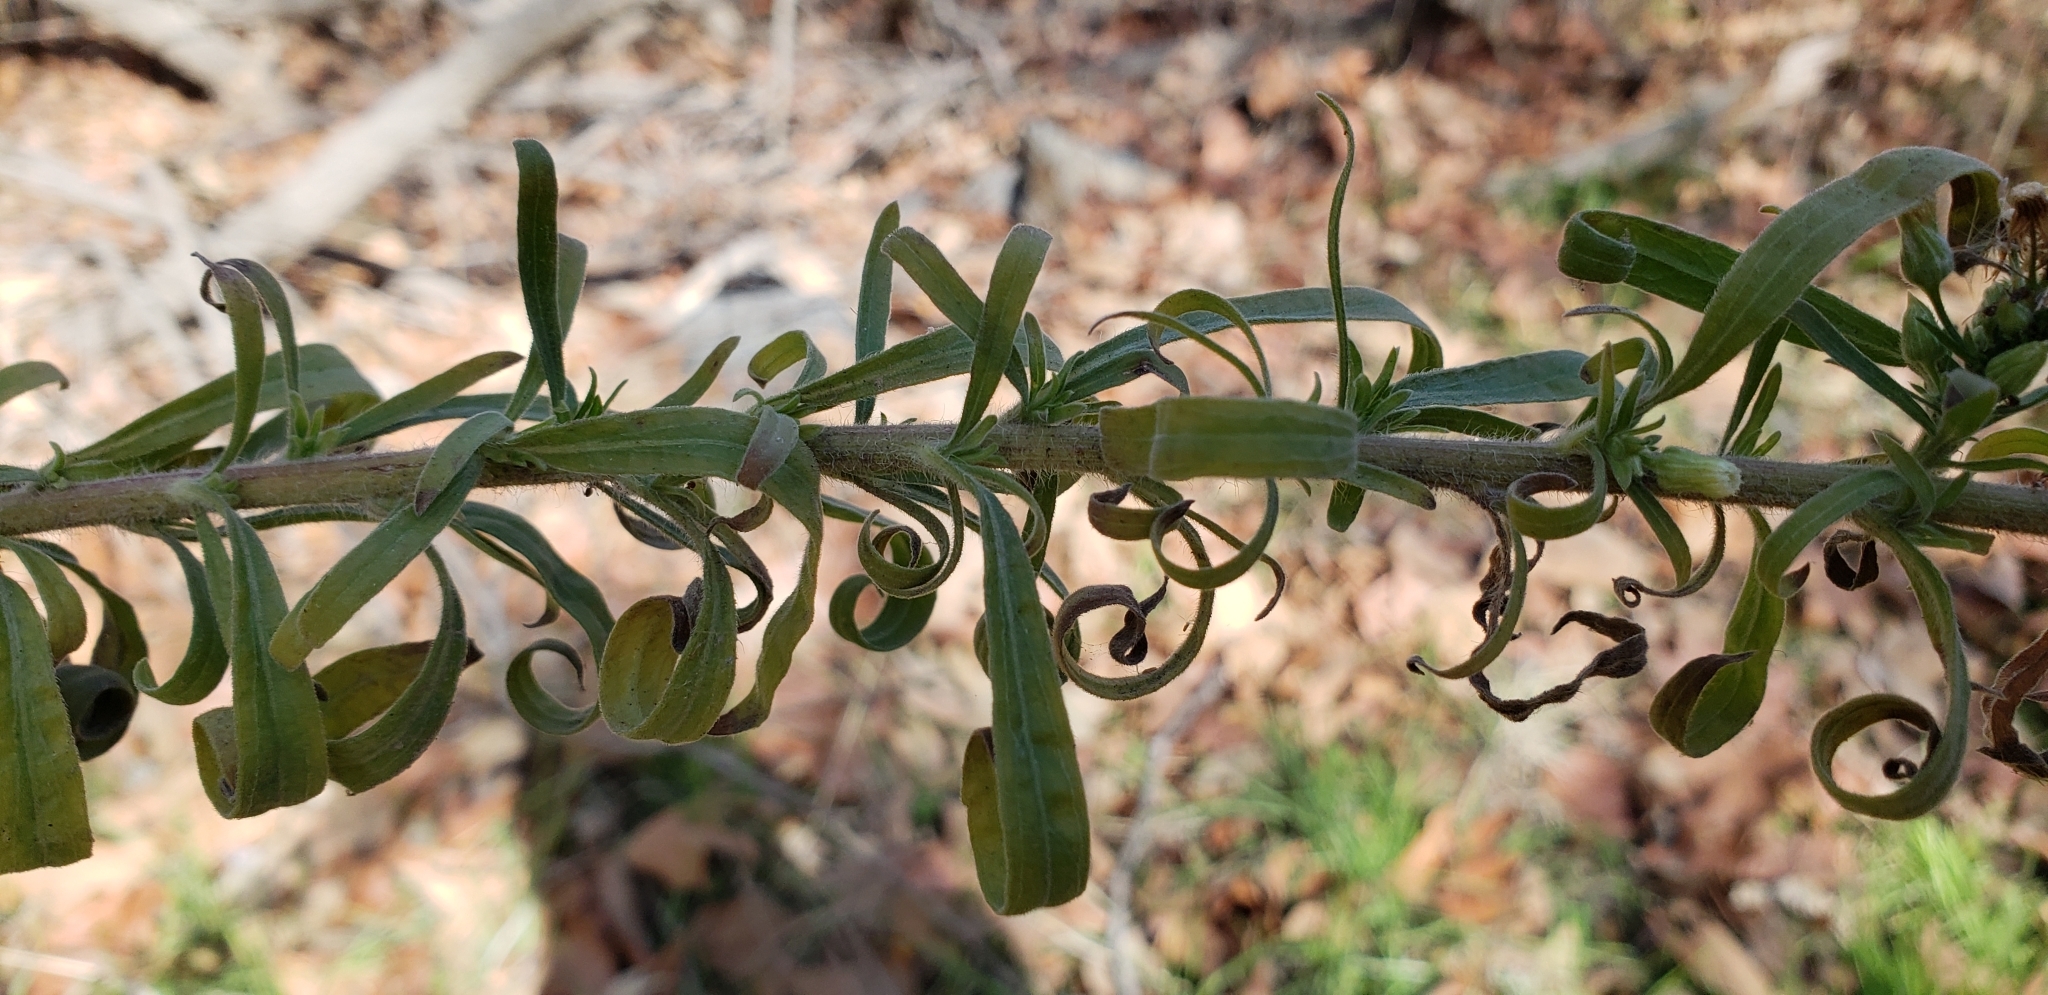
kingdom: Plantae
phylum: Tracheophyta
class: Magnoliopsida
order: Asterales
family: Asteraceae
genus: Erigeron
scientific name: Erigeron sumatrensis
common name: Daisy
